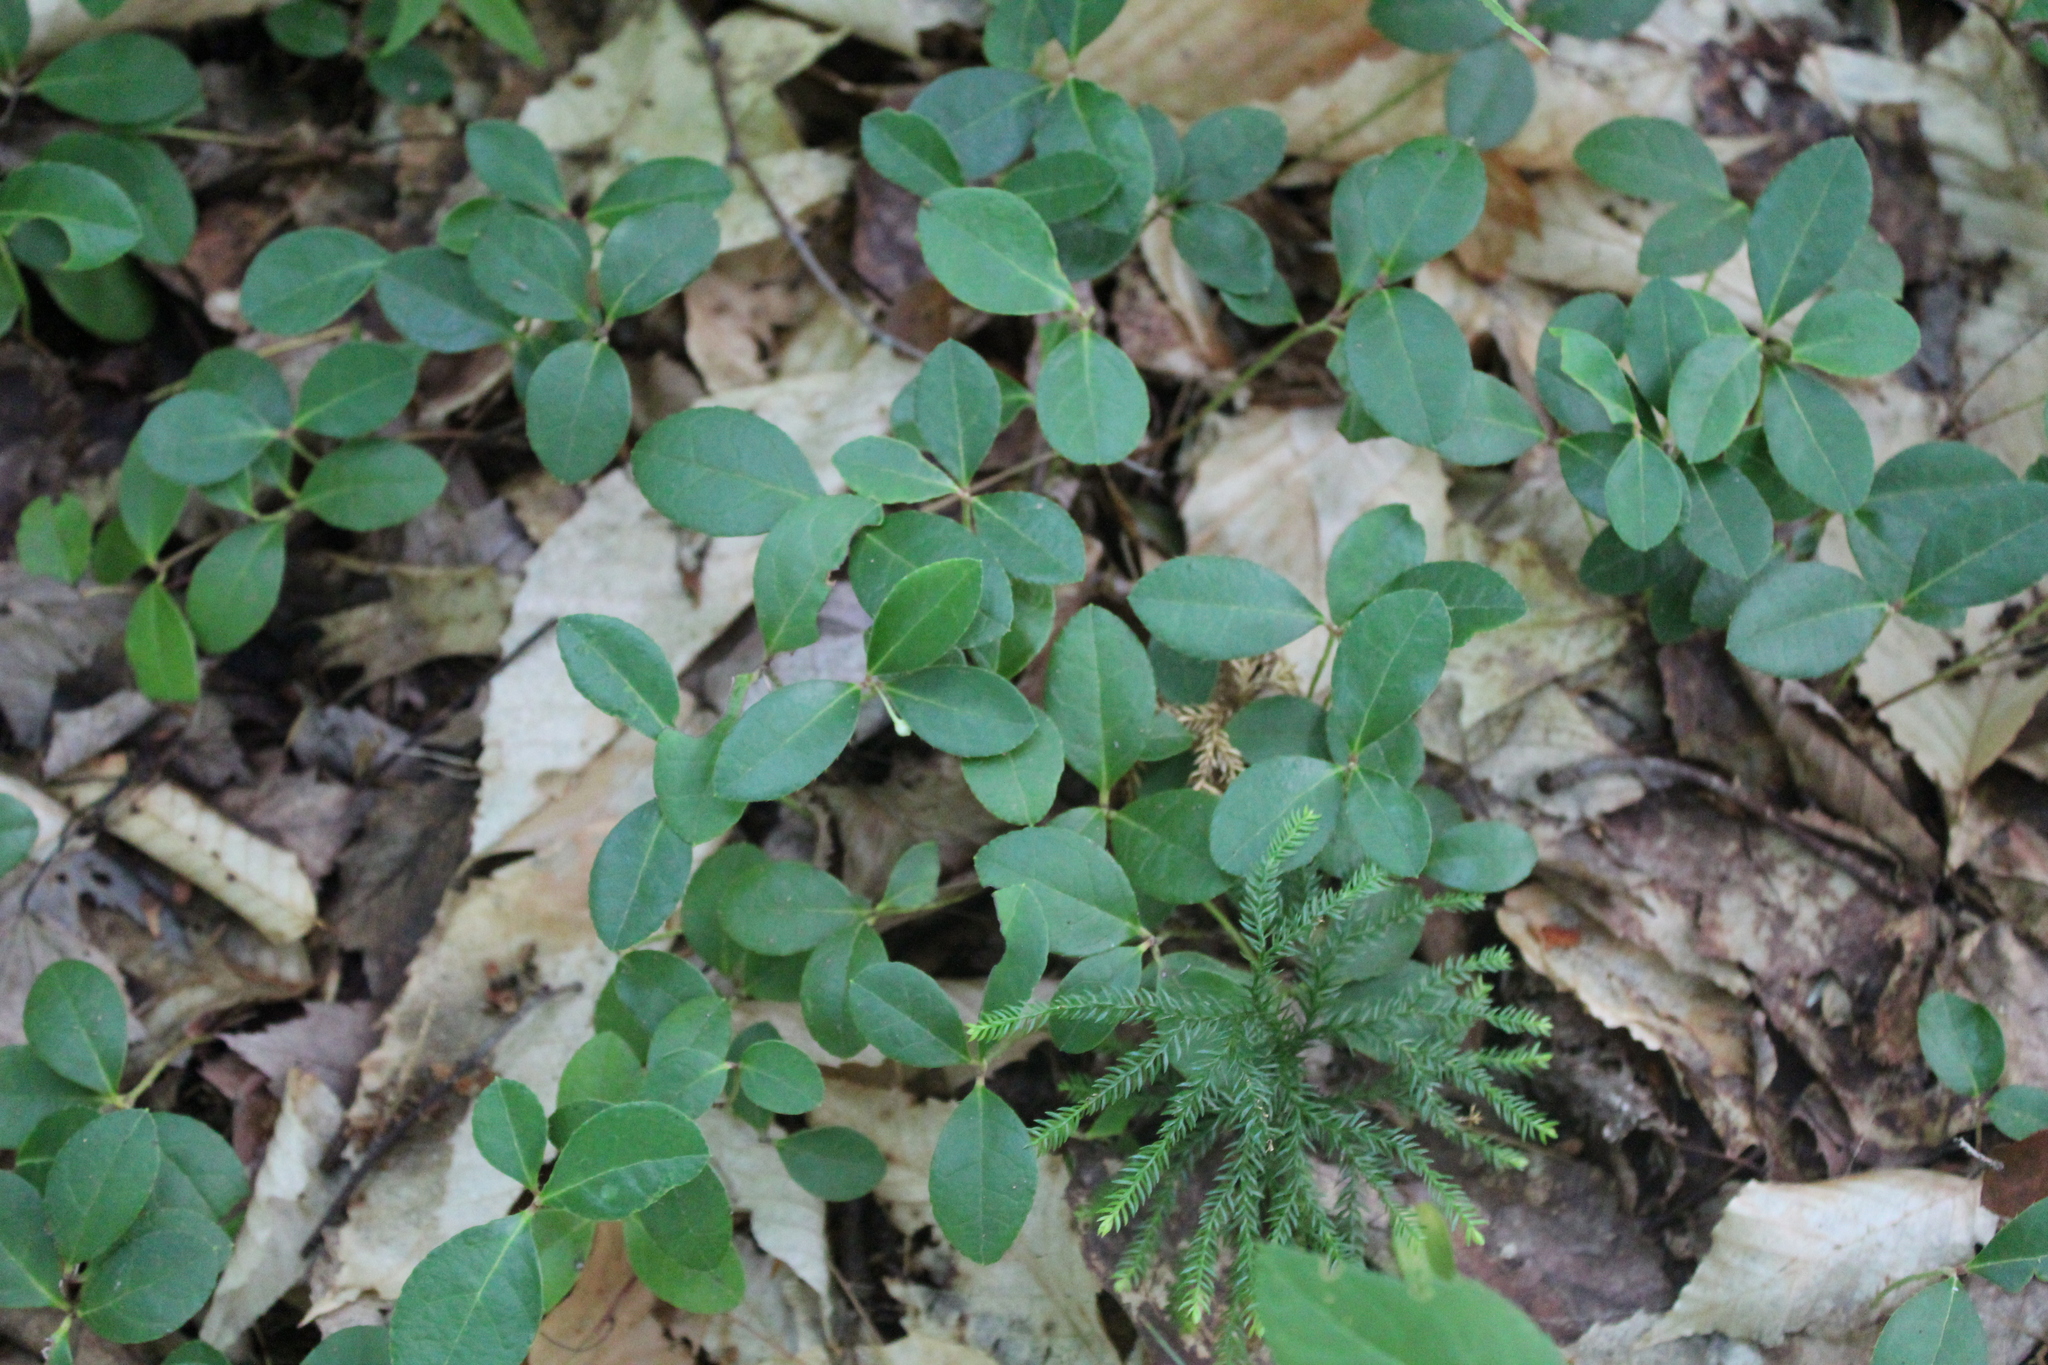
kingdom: Plantae
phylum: Tracheophyta
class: Magnoliopsida
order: Ericales
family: Ericaceae
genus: Gaultheria
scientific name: Gaultheria procumbens
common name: Checkerberry
